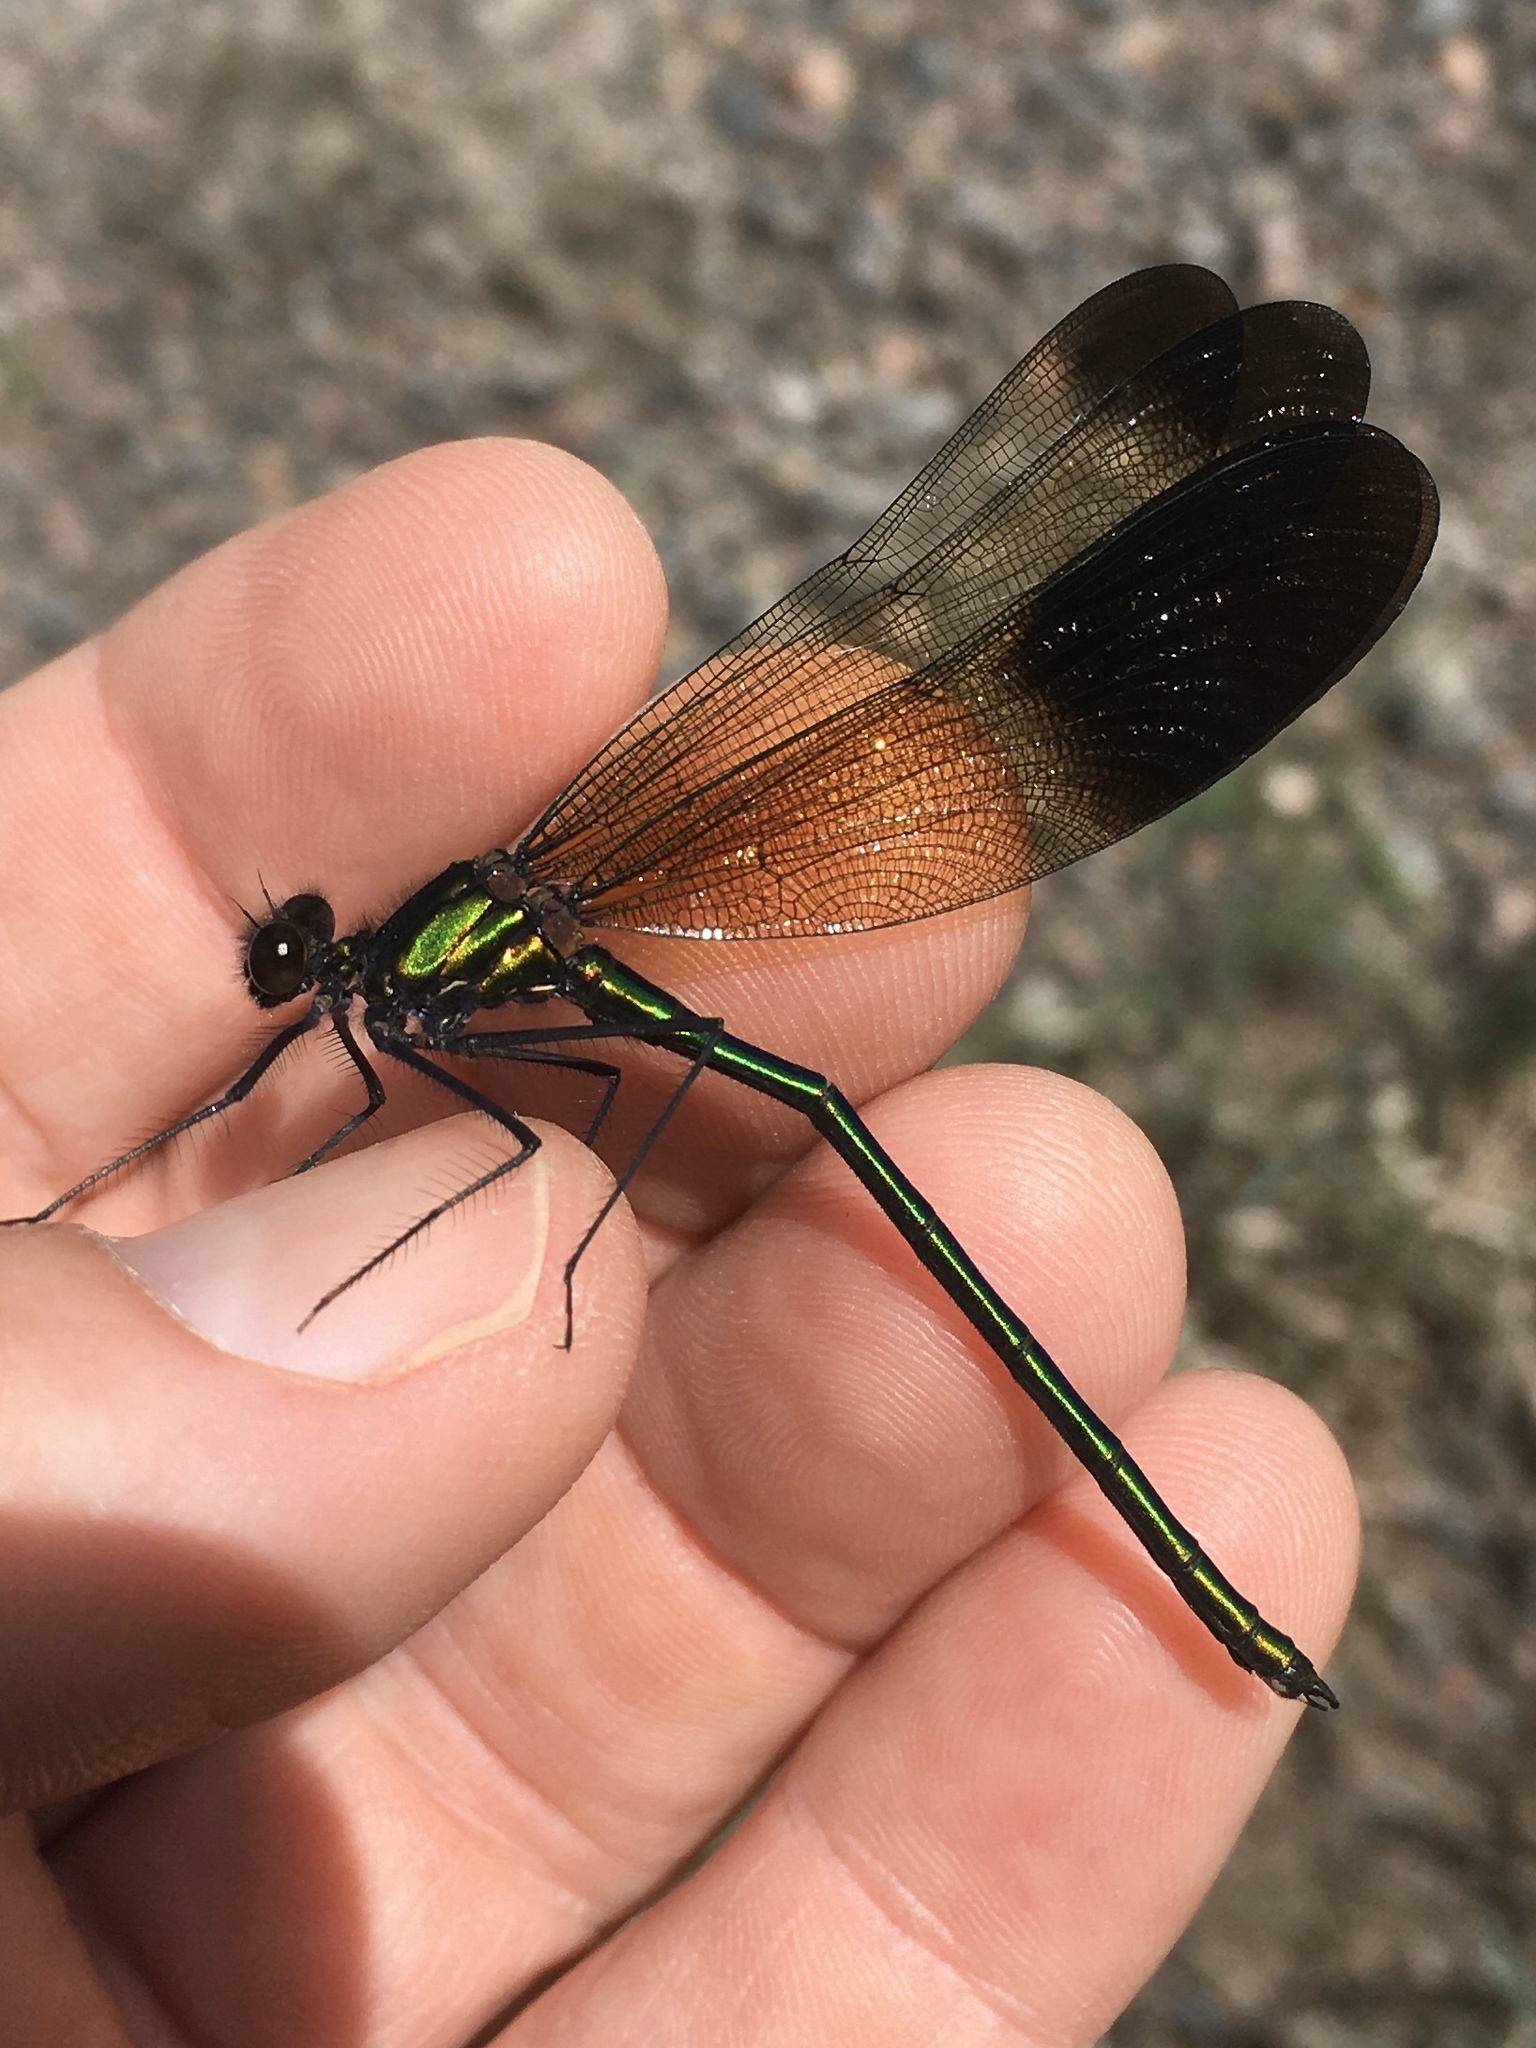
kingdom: Animalia
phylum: Arthropoda
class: Insecta
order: Odonata
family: Calopterygidae
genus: Calopteryx
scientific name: Calopteryx aequabilis
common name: River jewelwing
